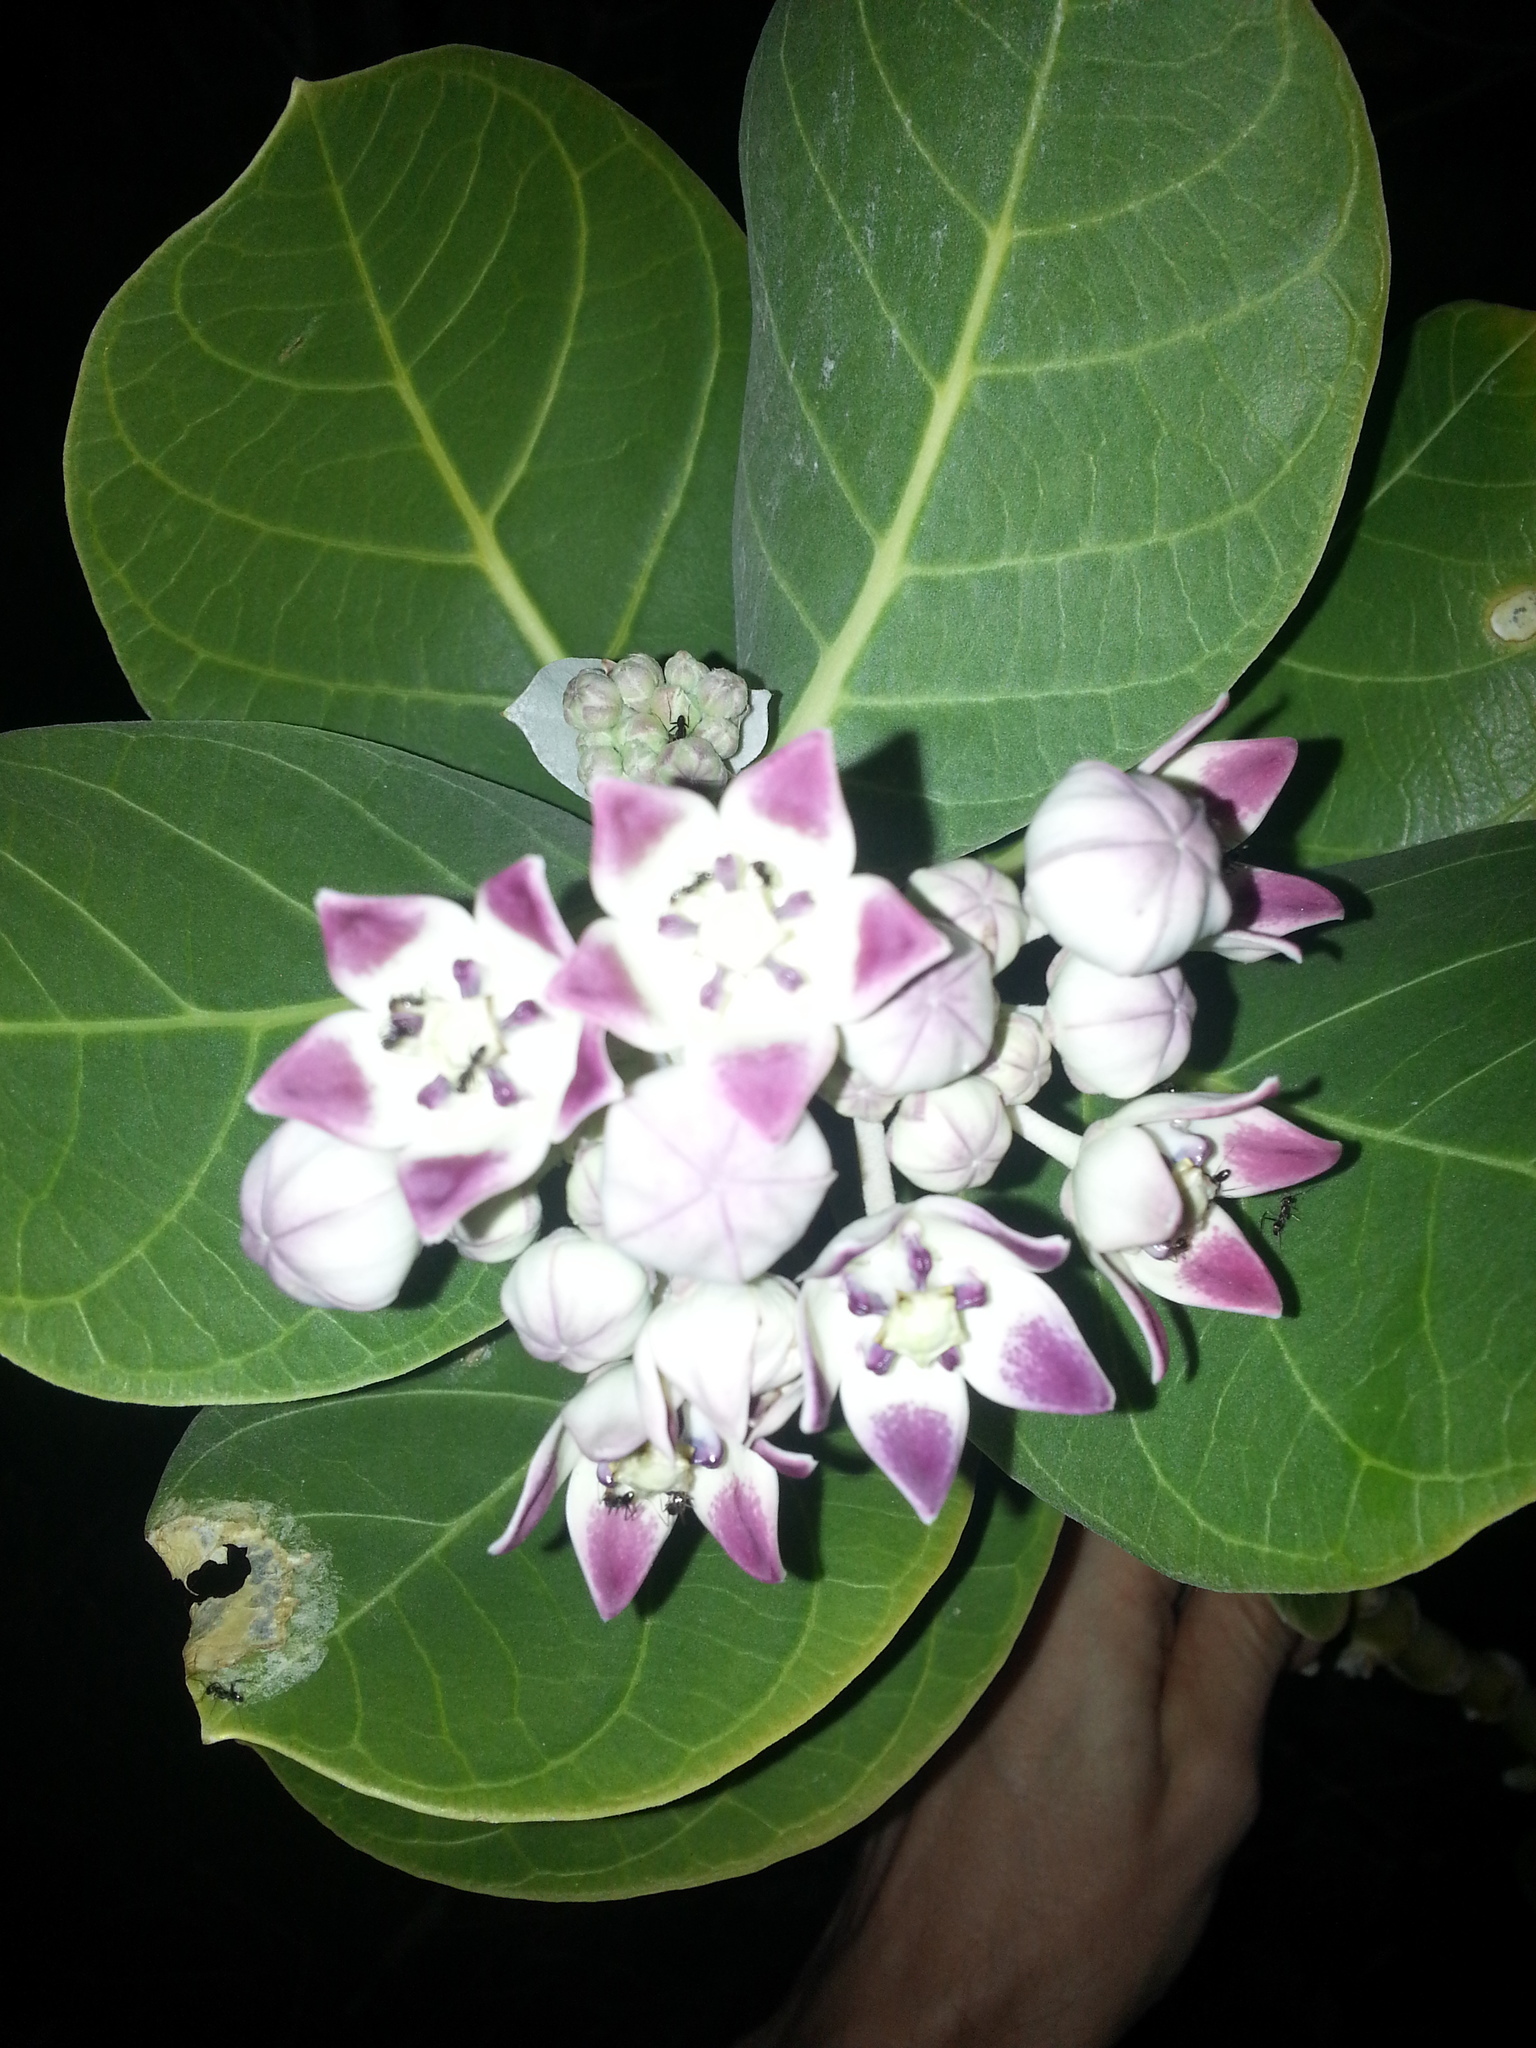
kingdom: Plantae
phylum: Tracheophyta
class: Magnoliopsida
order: Gentianales
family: Apocynaceae
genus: Calotropis
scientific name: Calotropis procera
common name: Roostertree
